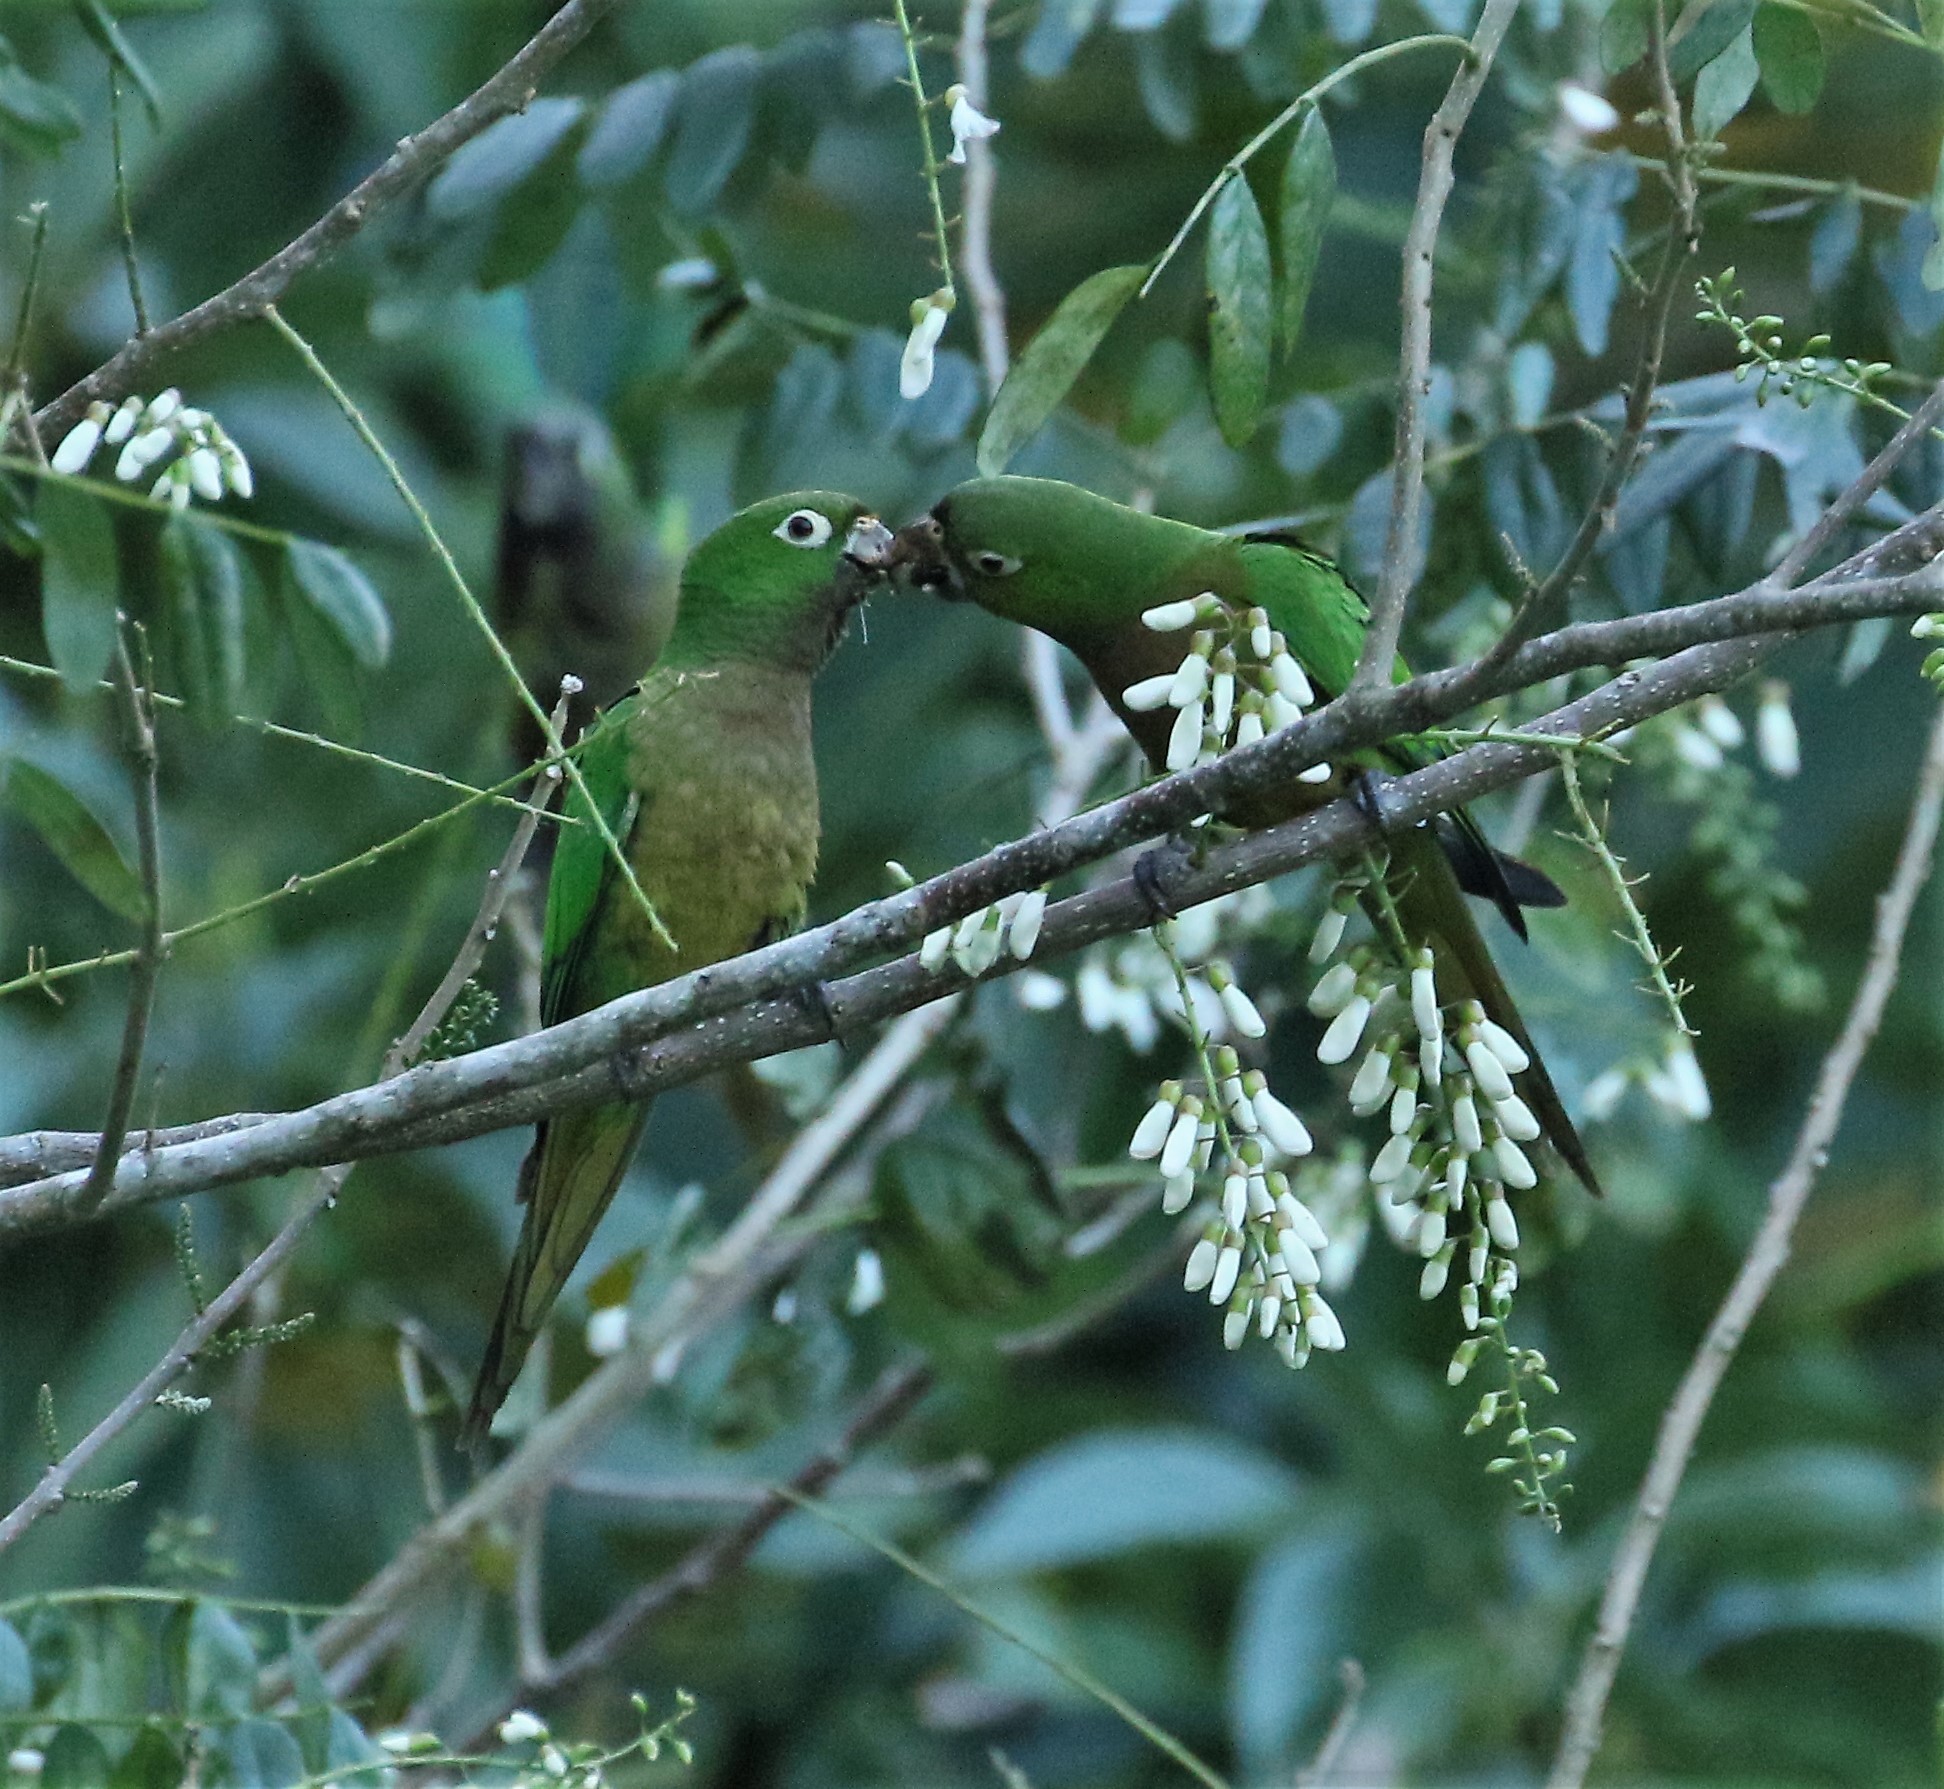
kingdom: Animalia
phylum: Chordata
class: Aves
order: Psittaciformes
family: Psittacidae
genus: Aratinga
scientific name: Aratinga nana
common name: Olive-throated parakeet
